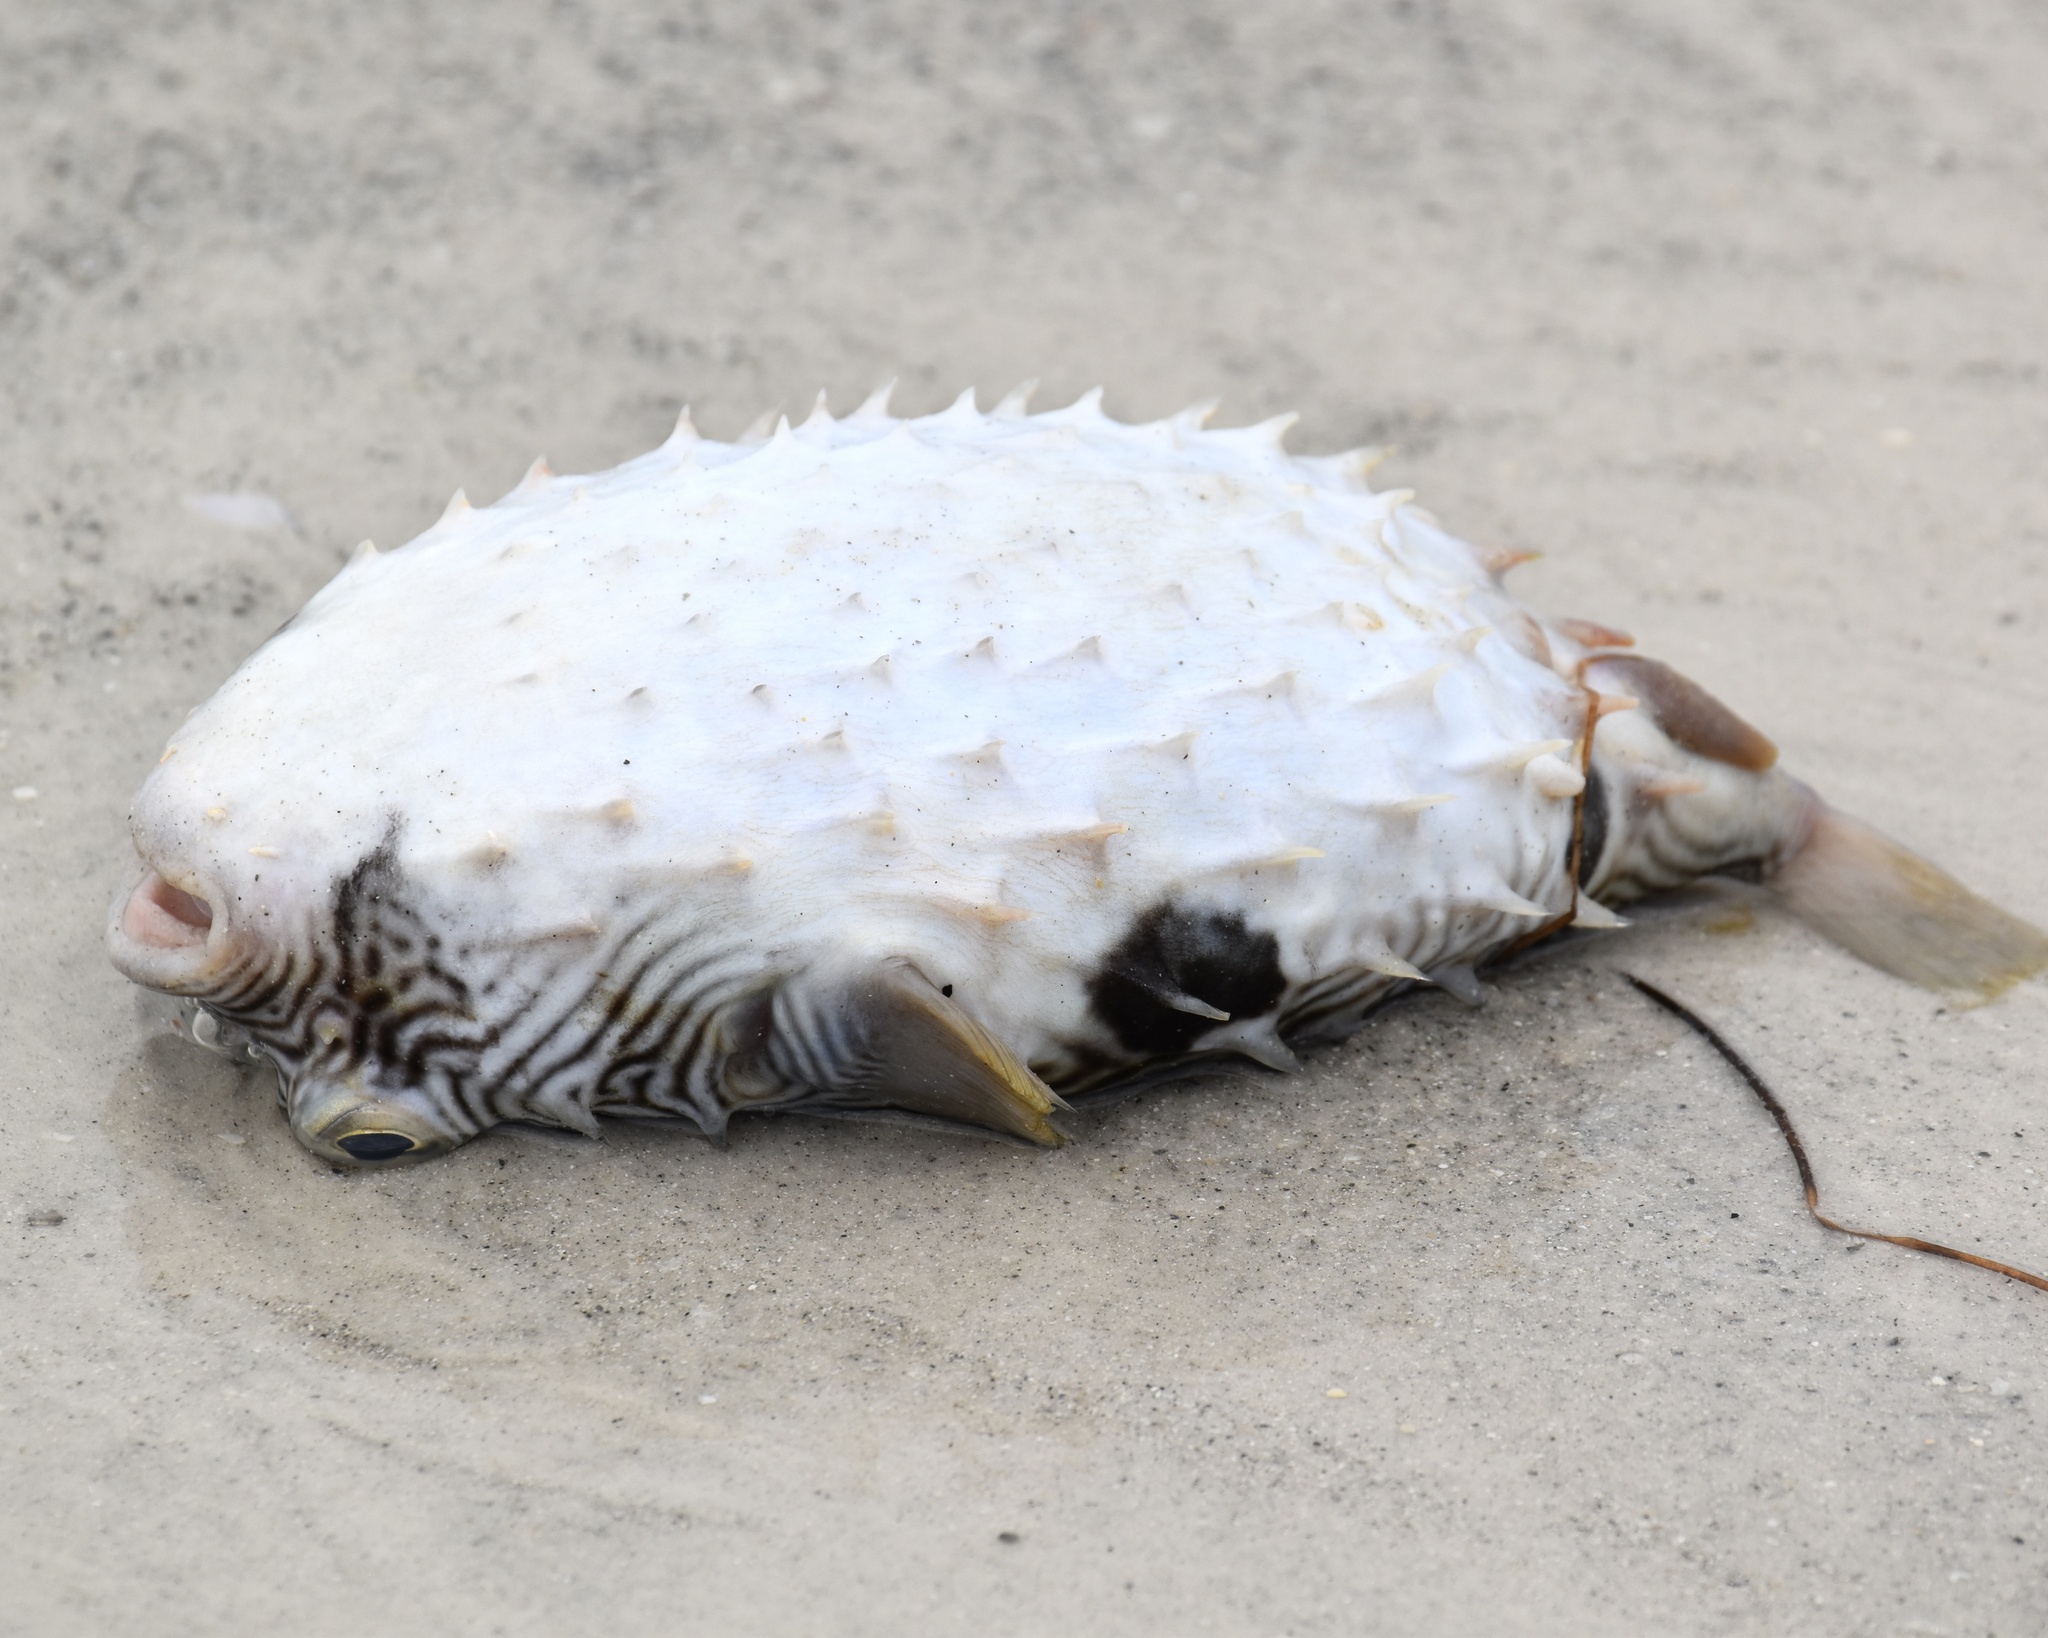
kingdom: Animalia
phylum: Chordata
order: Tetraodontiformes
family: Diodontidae
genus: Chilomycterus
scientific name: Chilomycterus schoepfii
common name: Striped burrfish
